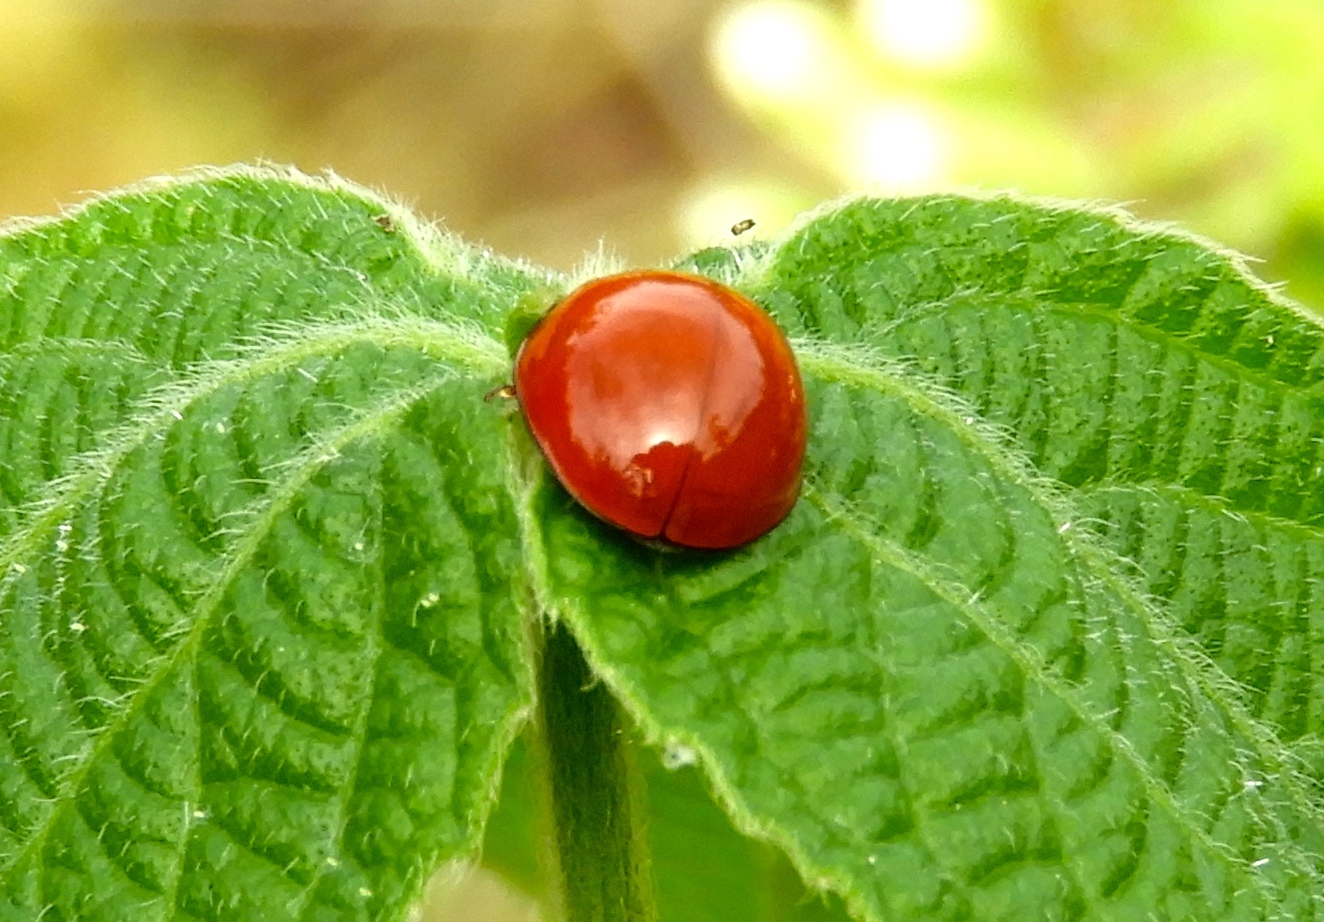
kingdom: Animalia
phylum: Arthropoda
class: Insecta
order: Coleoptera
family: Coccinellidae
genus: Cycloneda
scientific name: Cycloneda
